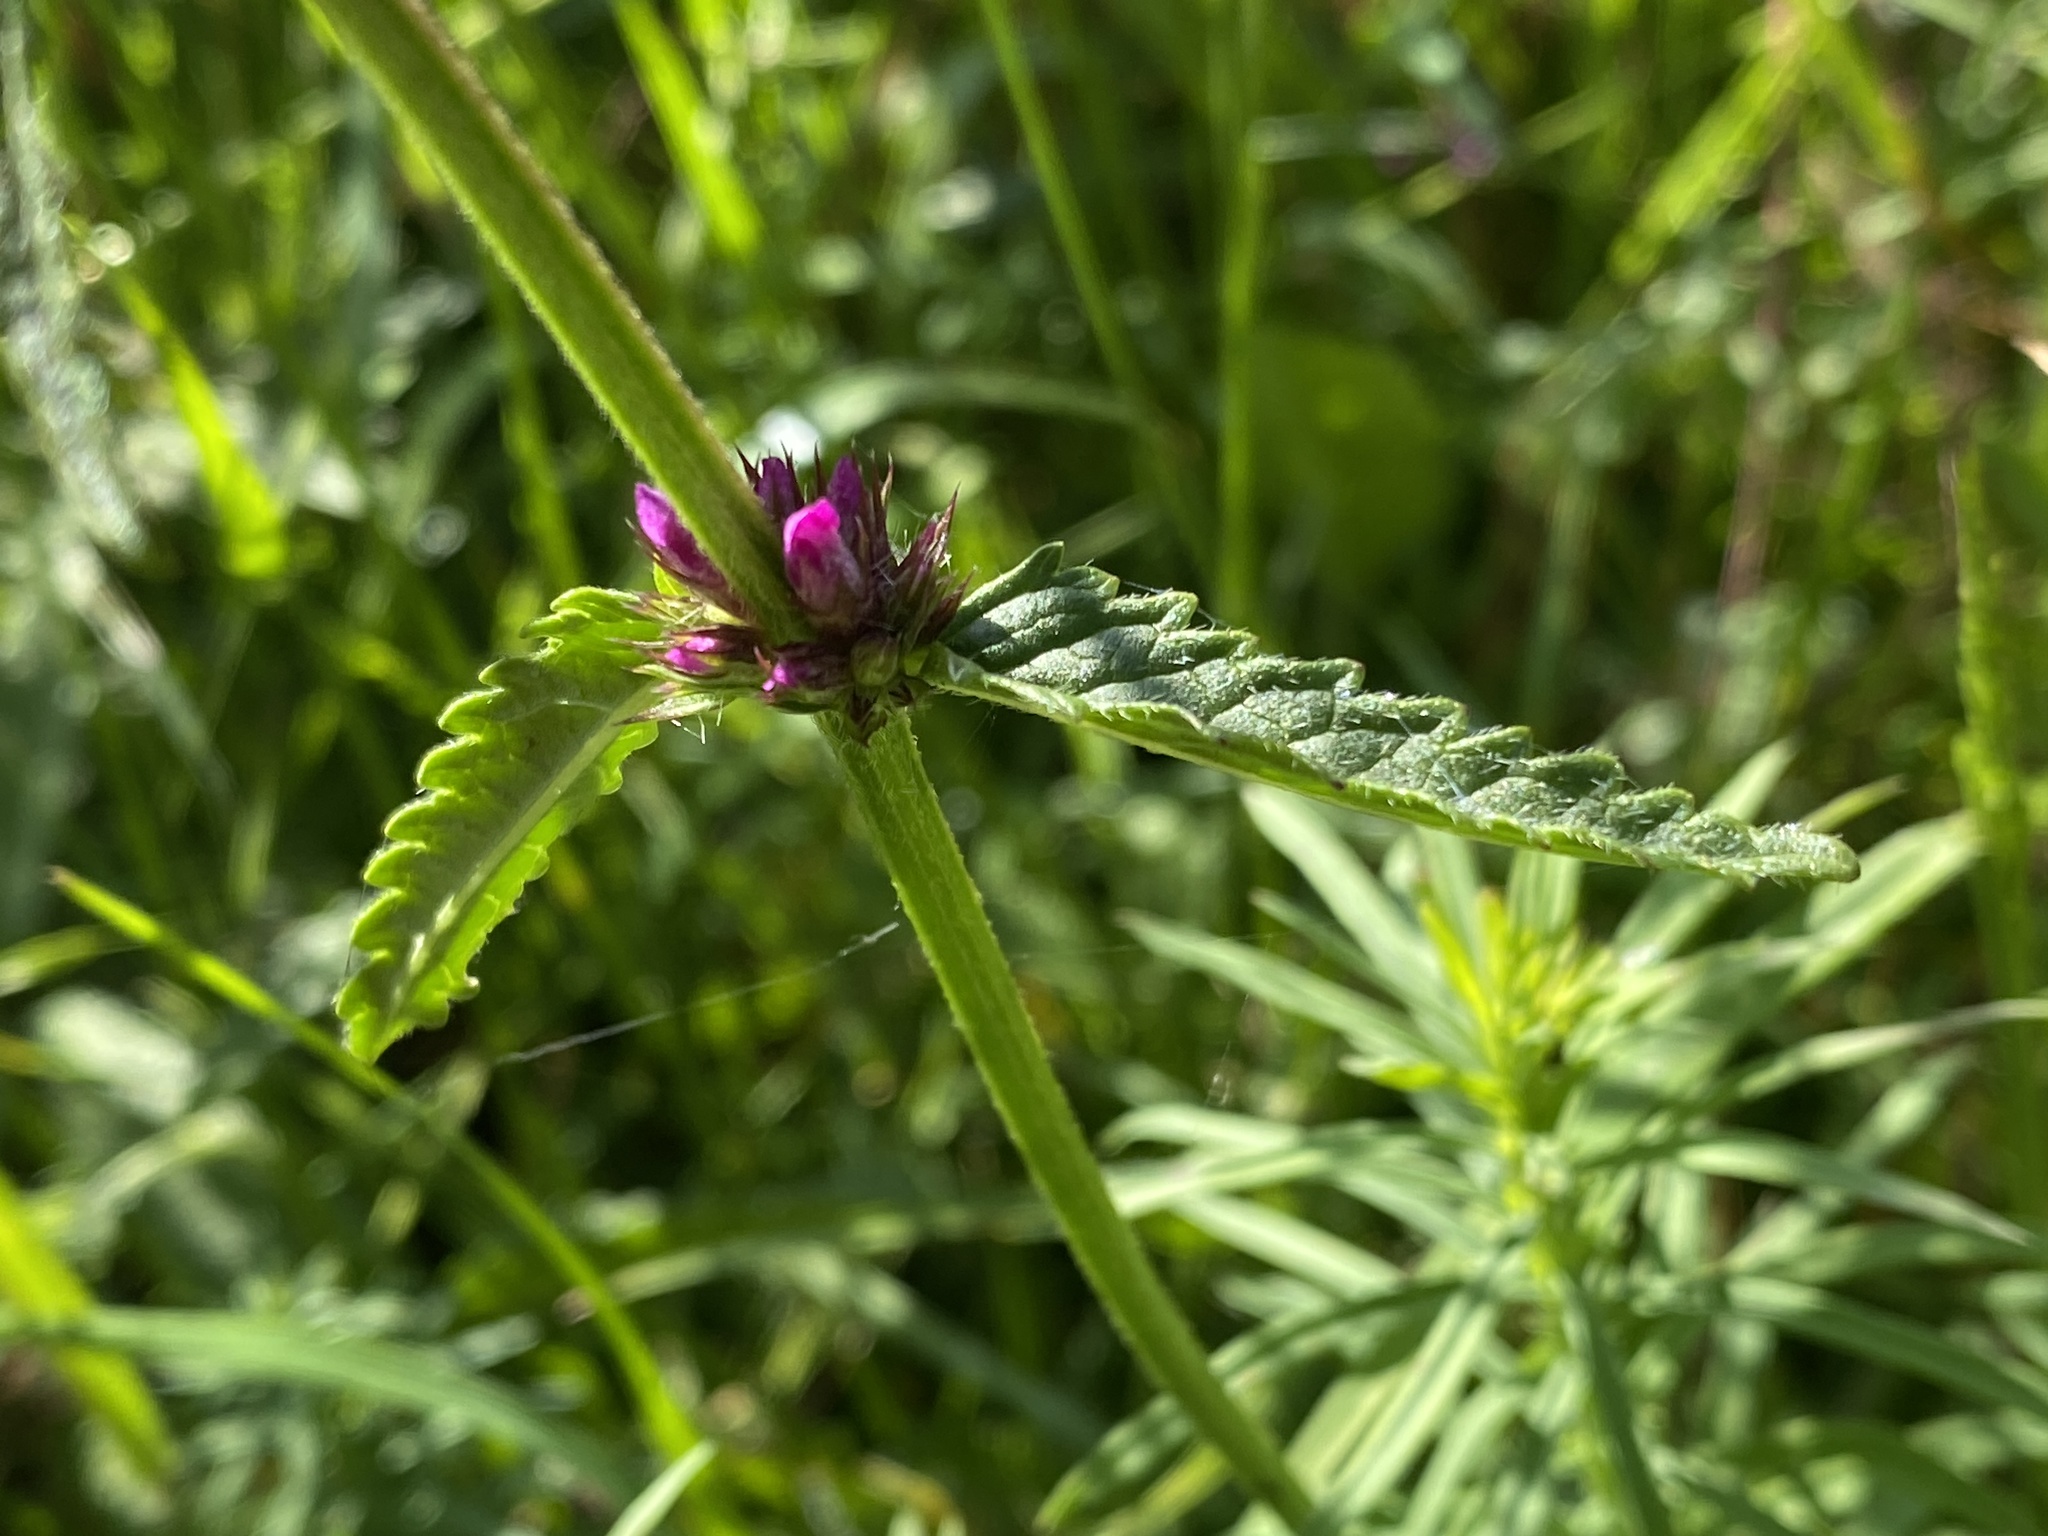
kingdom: Plantae
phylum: Tracheophyta
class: Magnoliopsida
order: Lamiales
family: Lamiaceae
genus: Betonica
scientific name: Betonica officinalis
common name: Bishop's-wort
